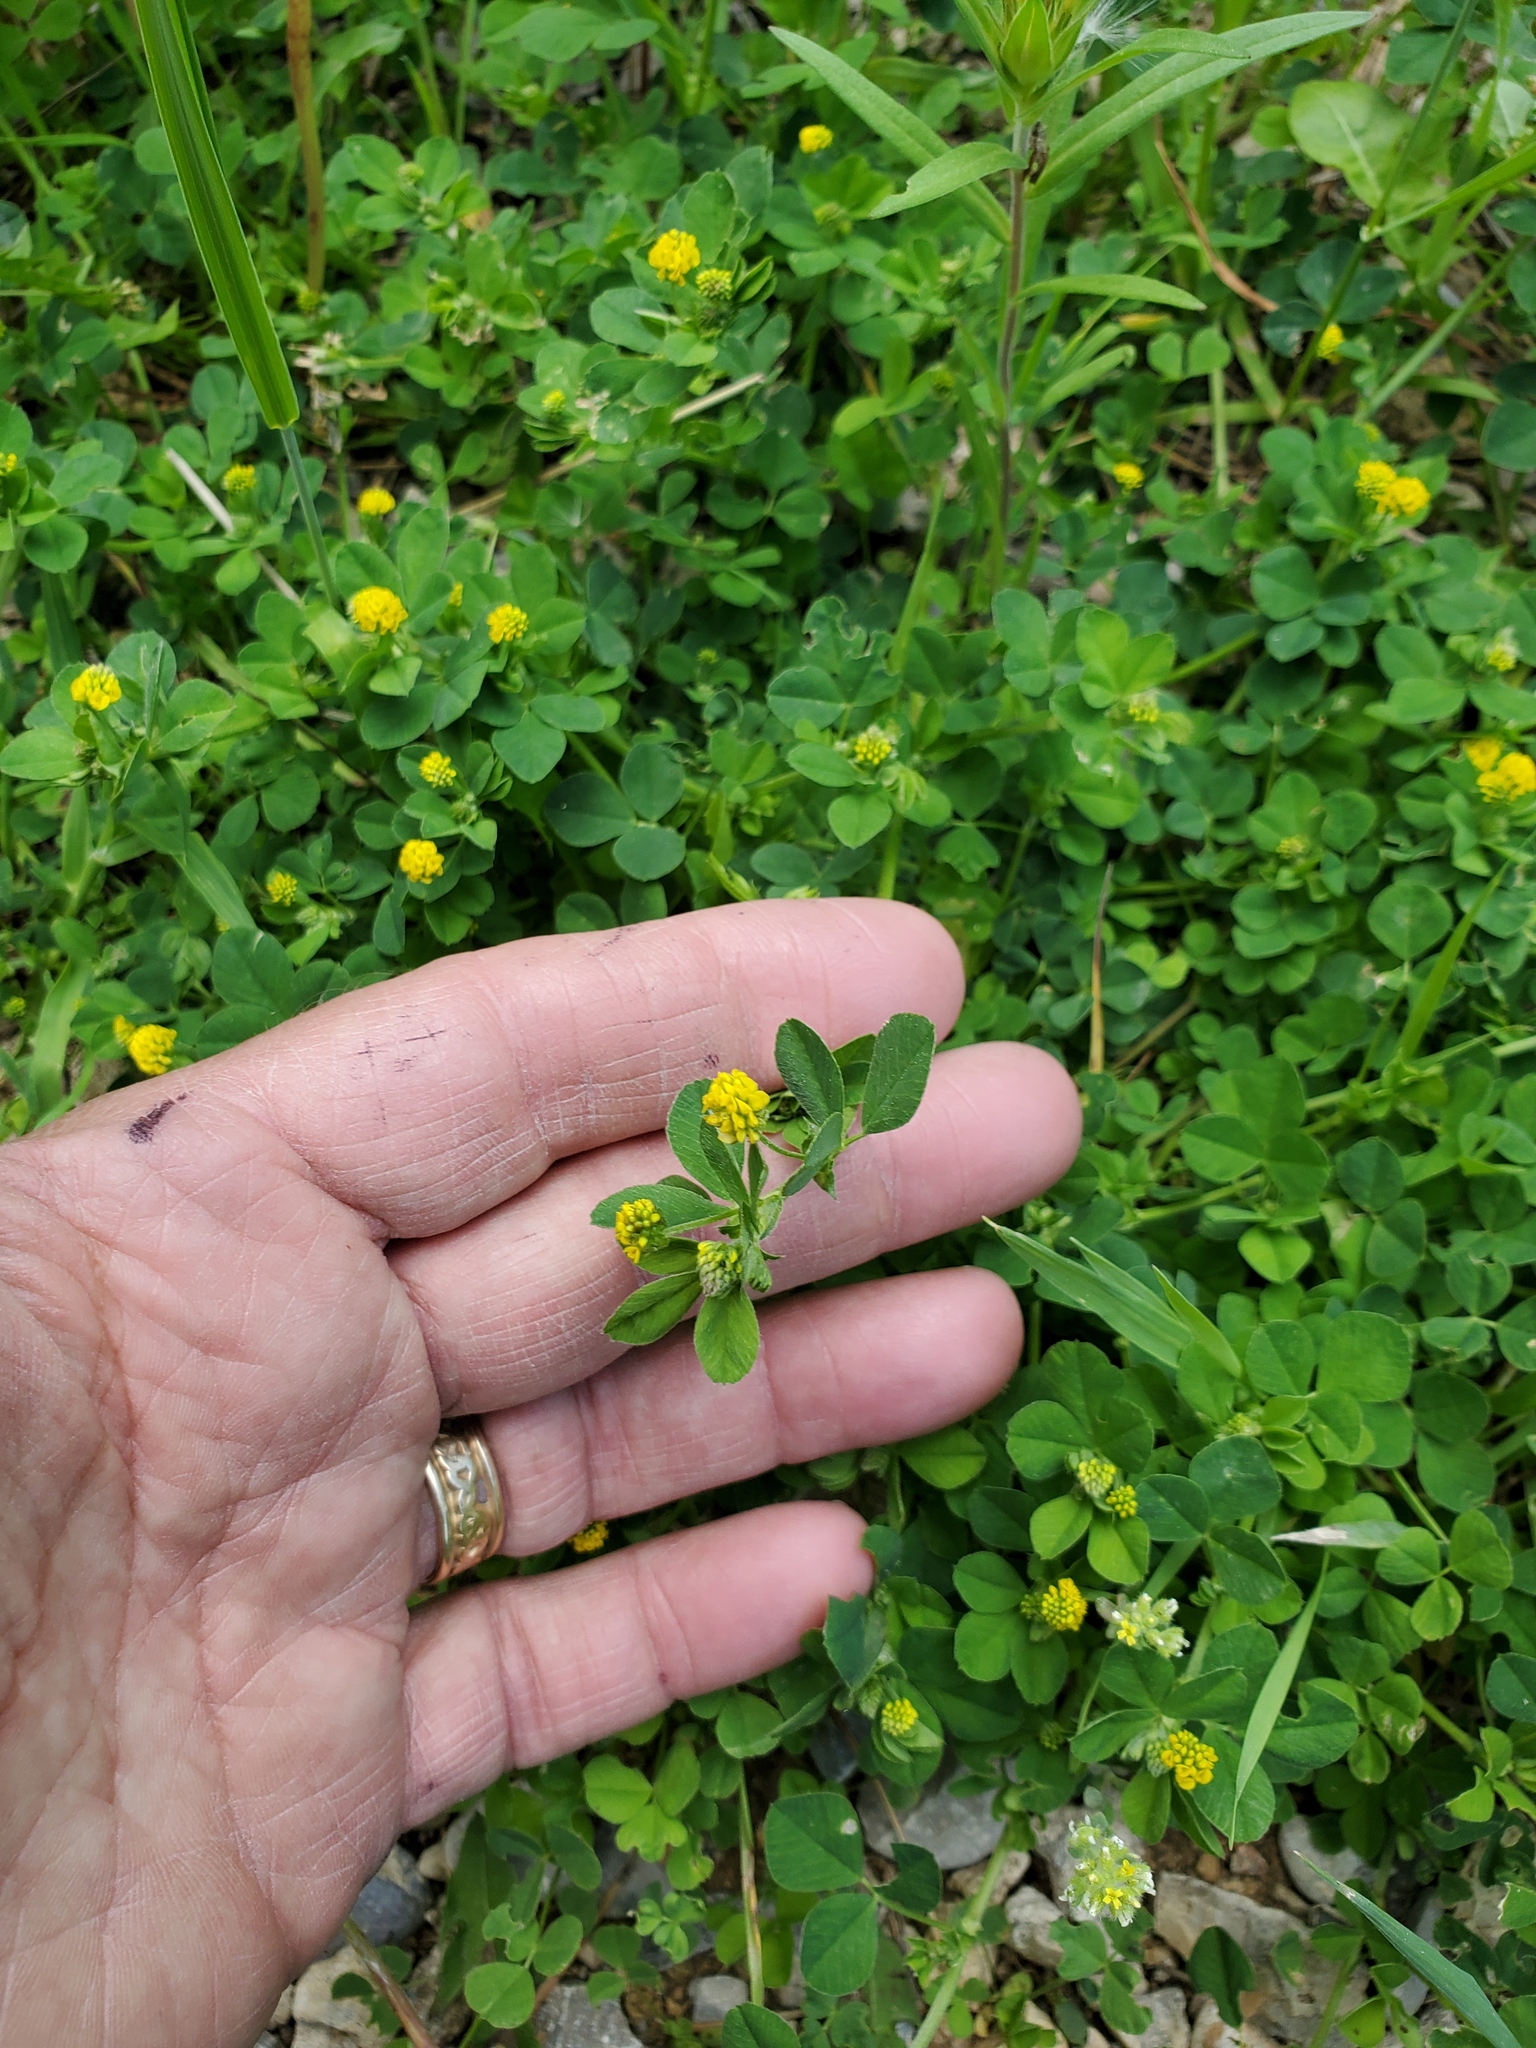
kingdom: Plantae
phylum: Tracheophyta
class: Magnoliopsida
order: Fabales
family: Fabaceae
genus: Medicago
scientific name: Medicago lupulina
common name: Black medick
